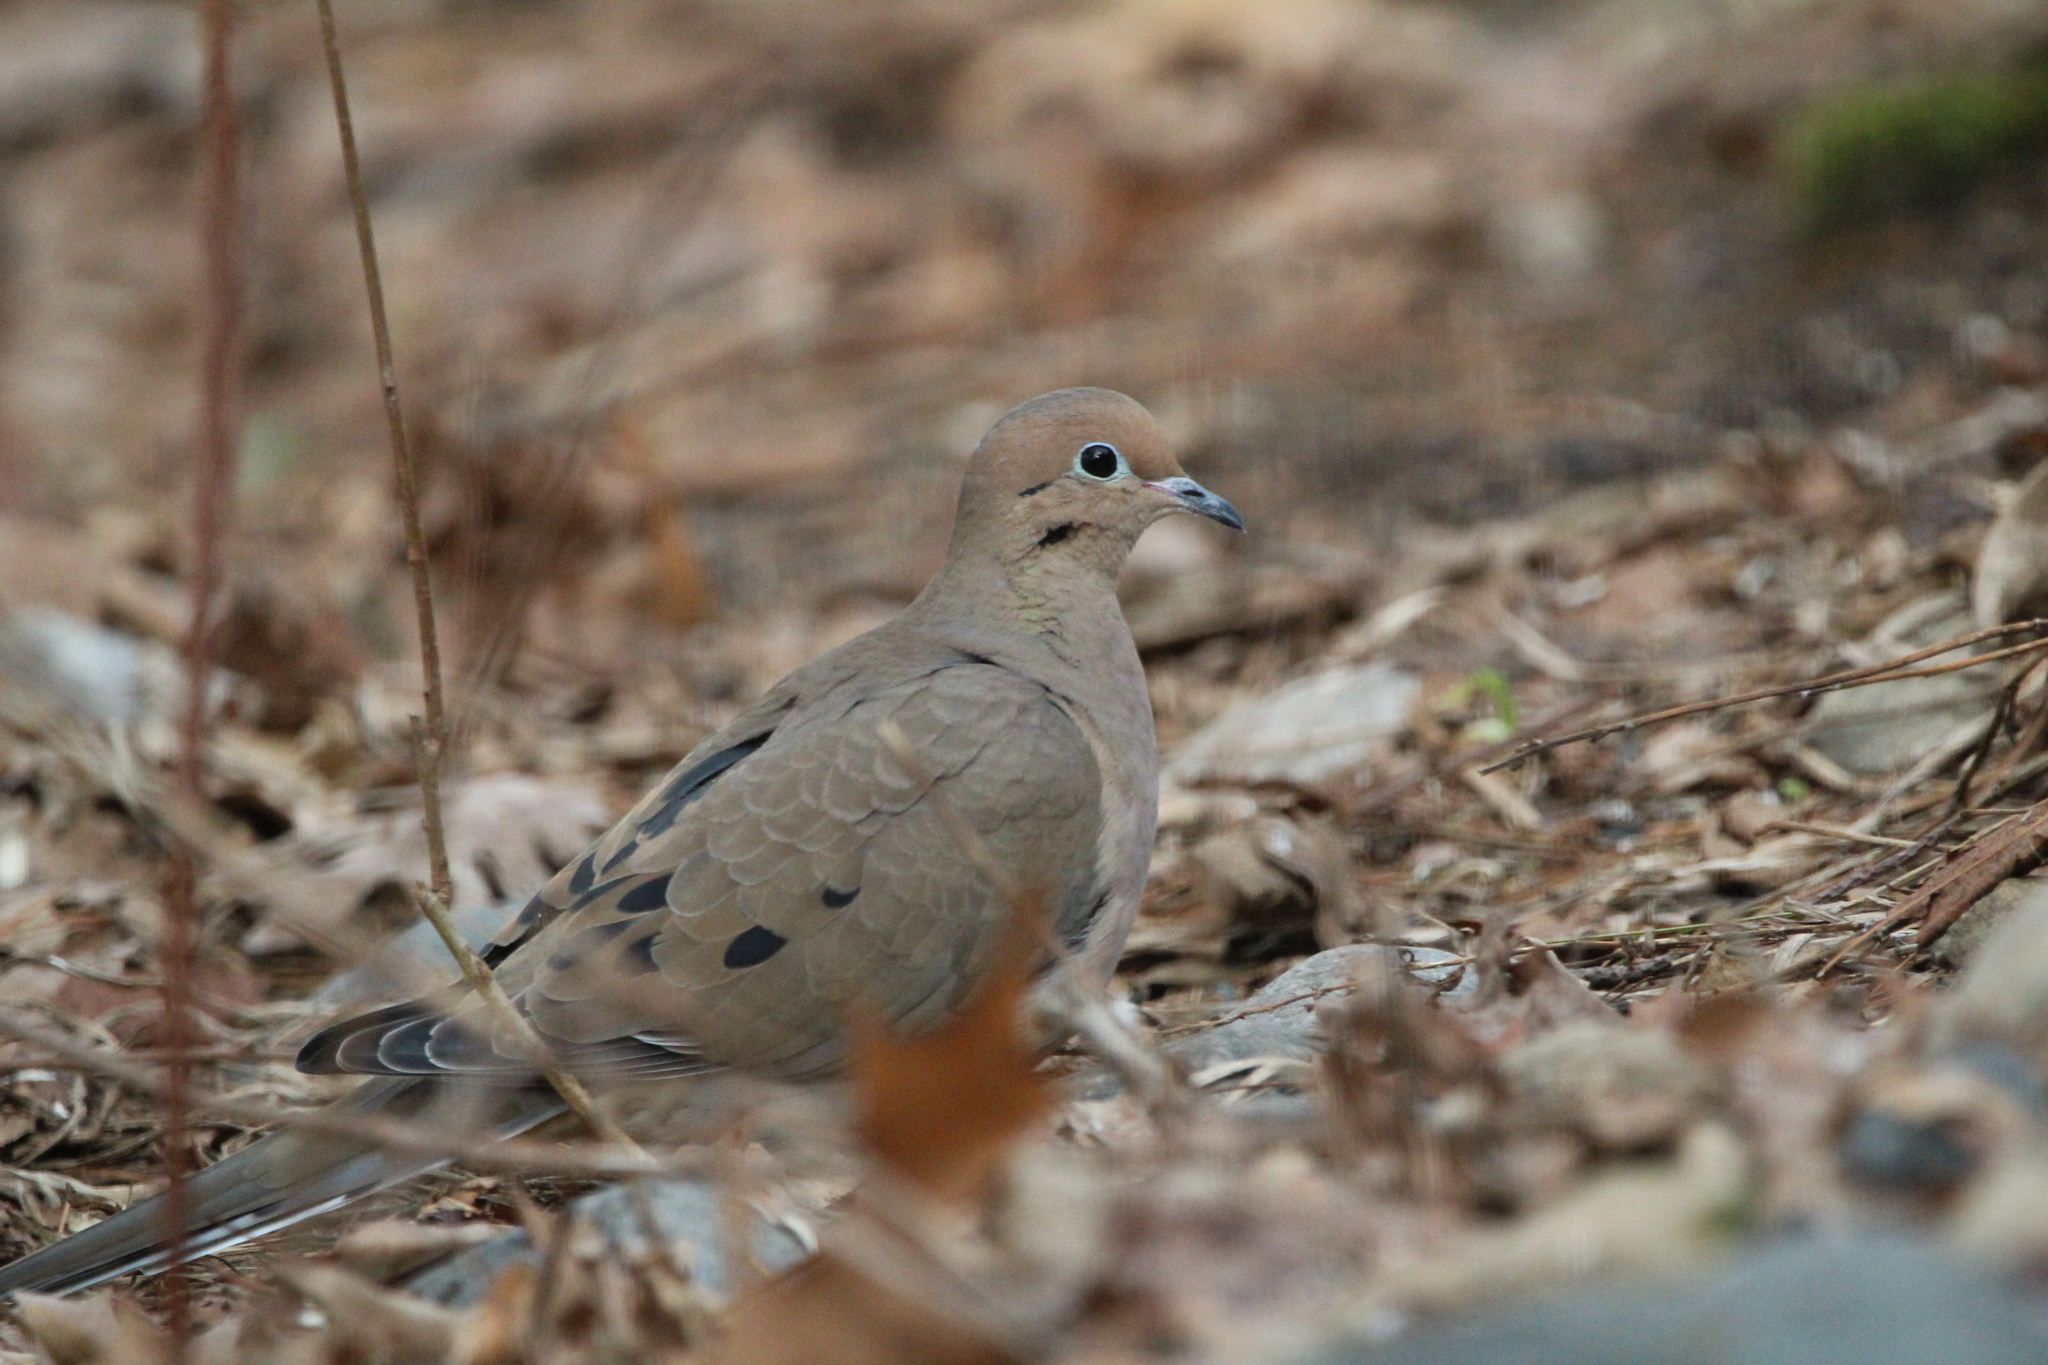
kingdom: Animalia
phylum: Chordata
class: Aves
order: Columbiformes
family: Columbidae
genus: Zenaida
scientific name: Zenaida macroura
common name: Mourning dove
